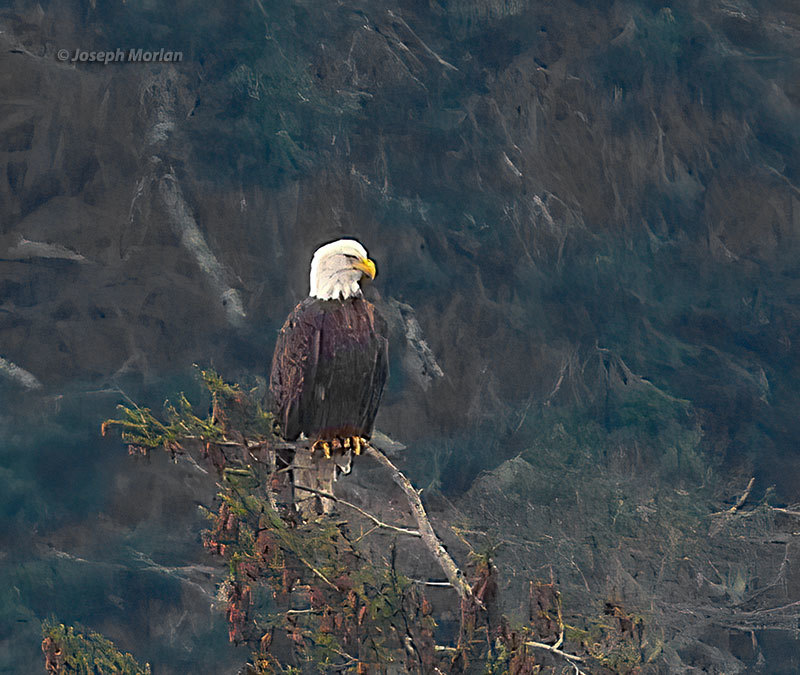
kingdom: Animalia
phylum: Chordata
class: Aves
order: Accipitriformes
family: Accipitridae
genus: Haliaeetus
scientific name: Haliaeetus leucocephalus
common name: Bald eagle
